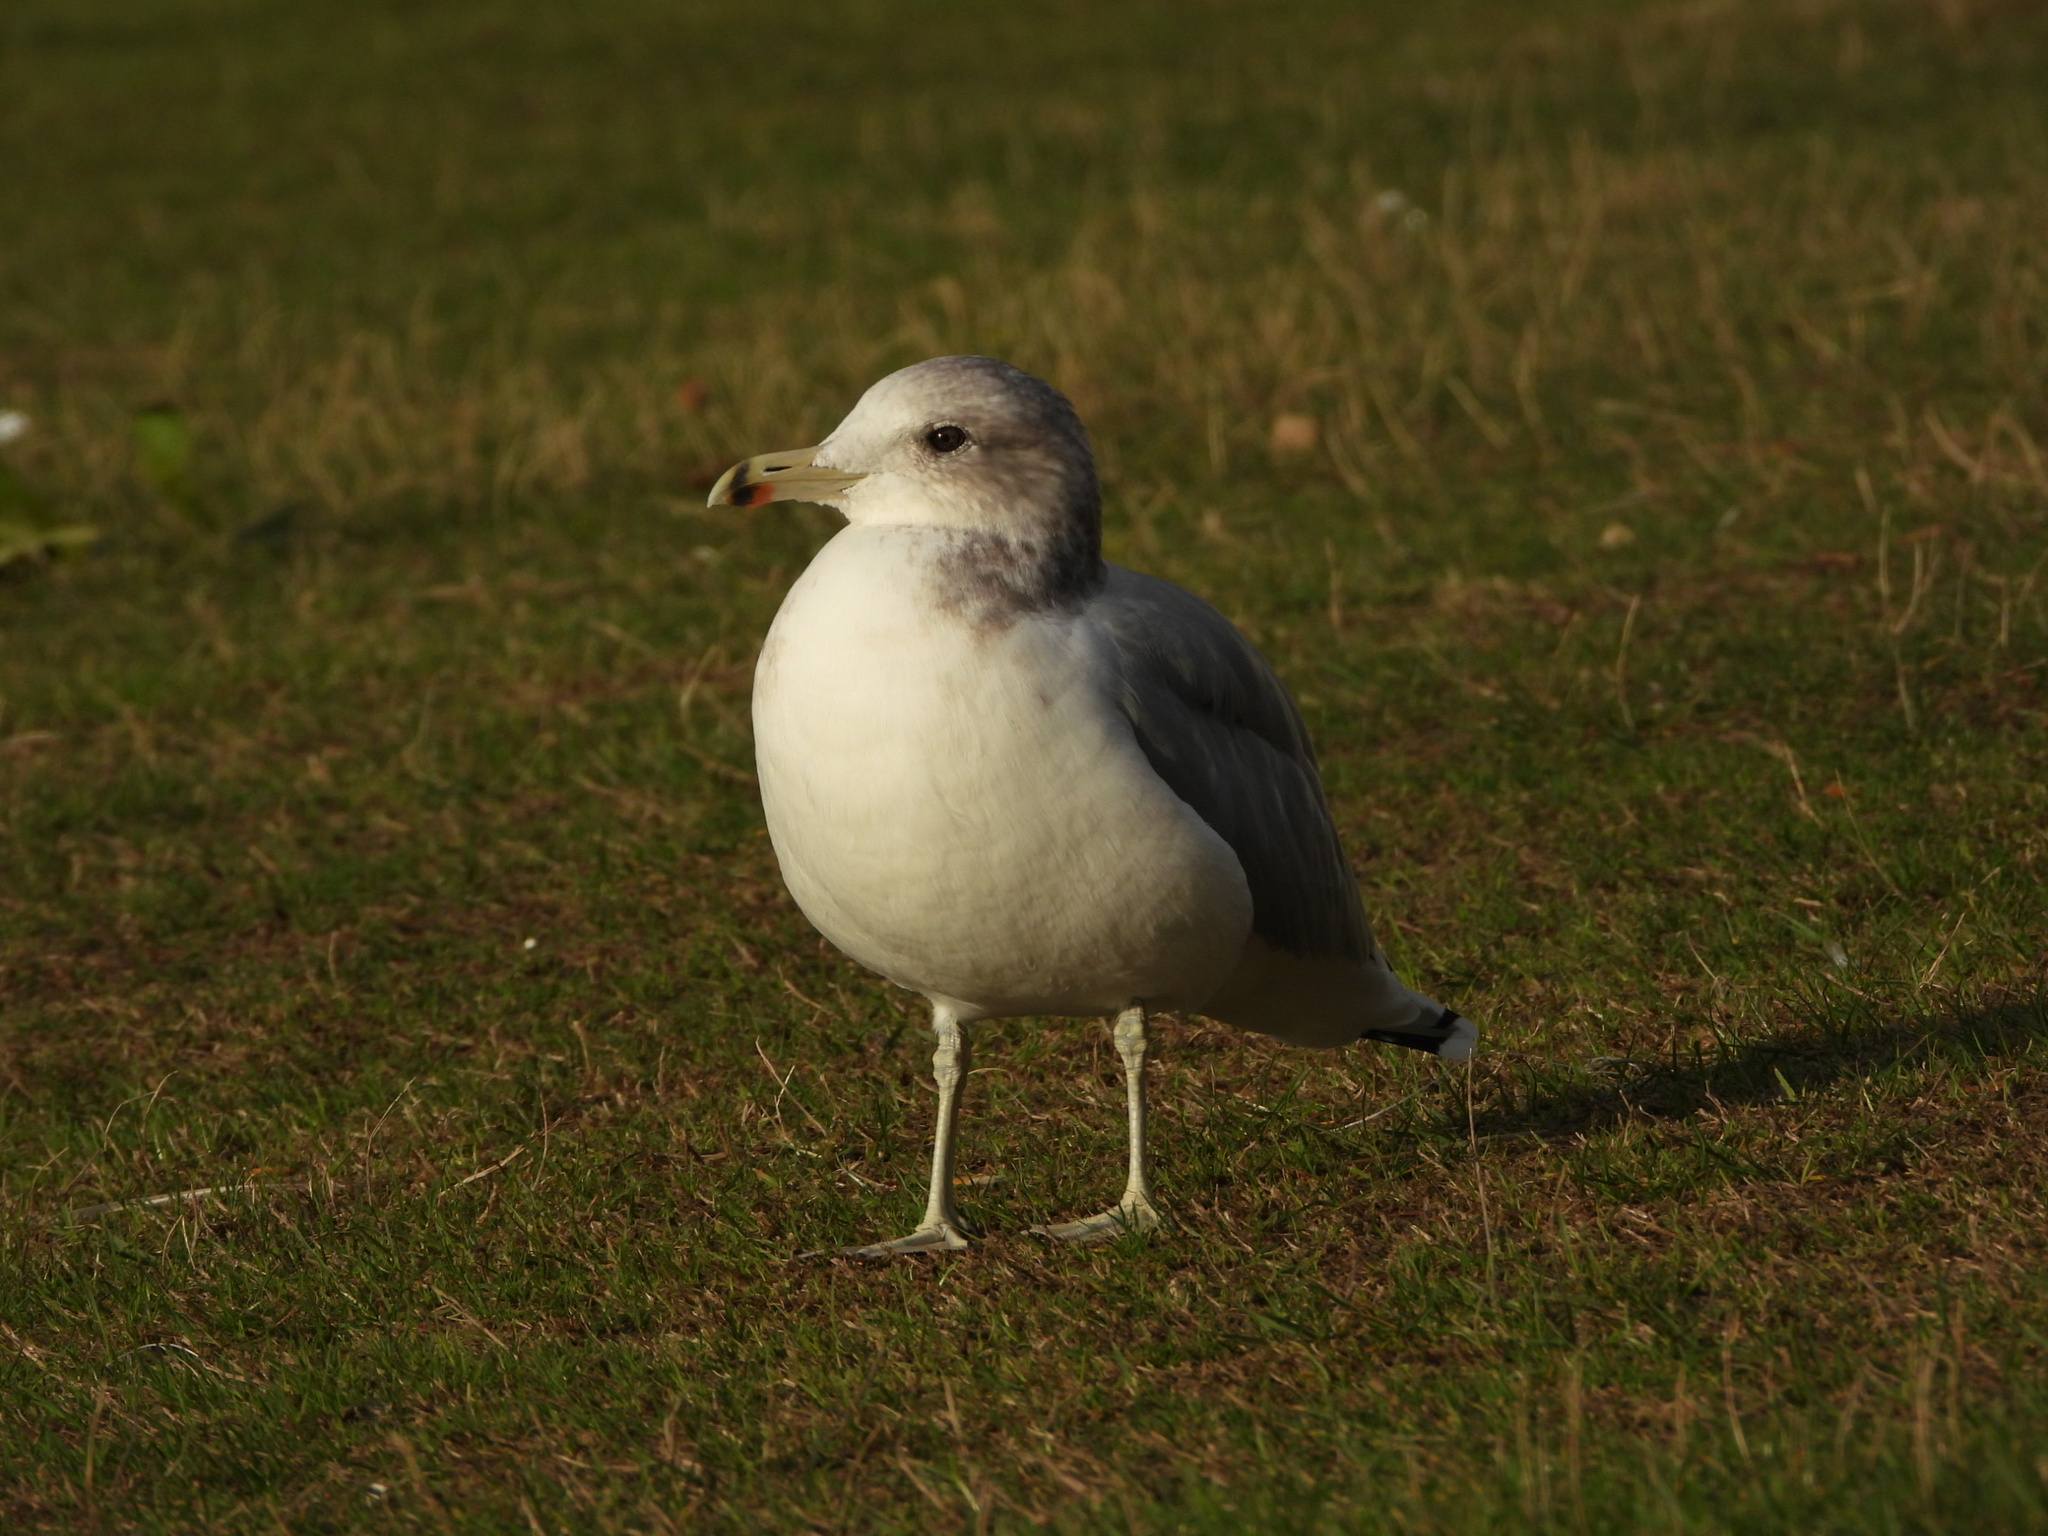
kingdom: Animalia
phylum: Chordata
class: Aves
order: Charadriiformes
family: Laridae
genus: Larus
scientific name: Larus californicus
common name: California gull
